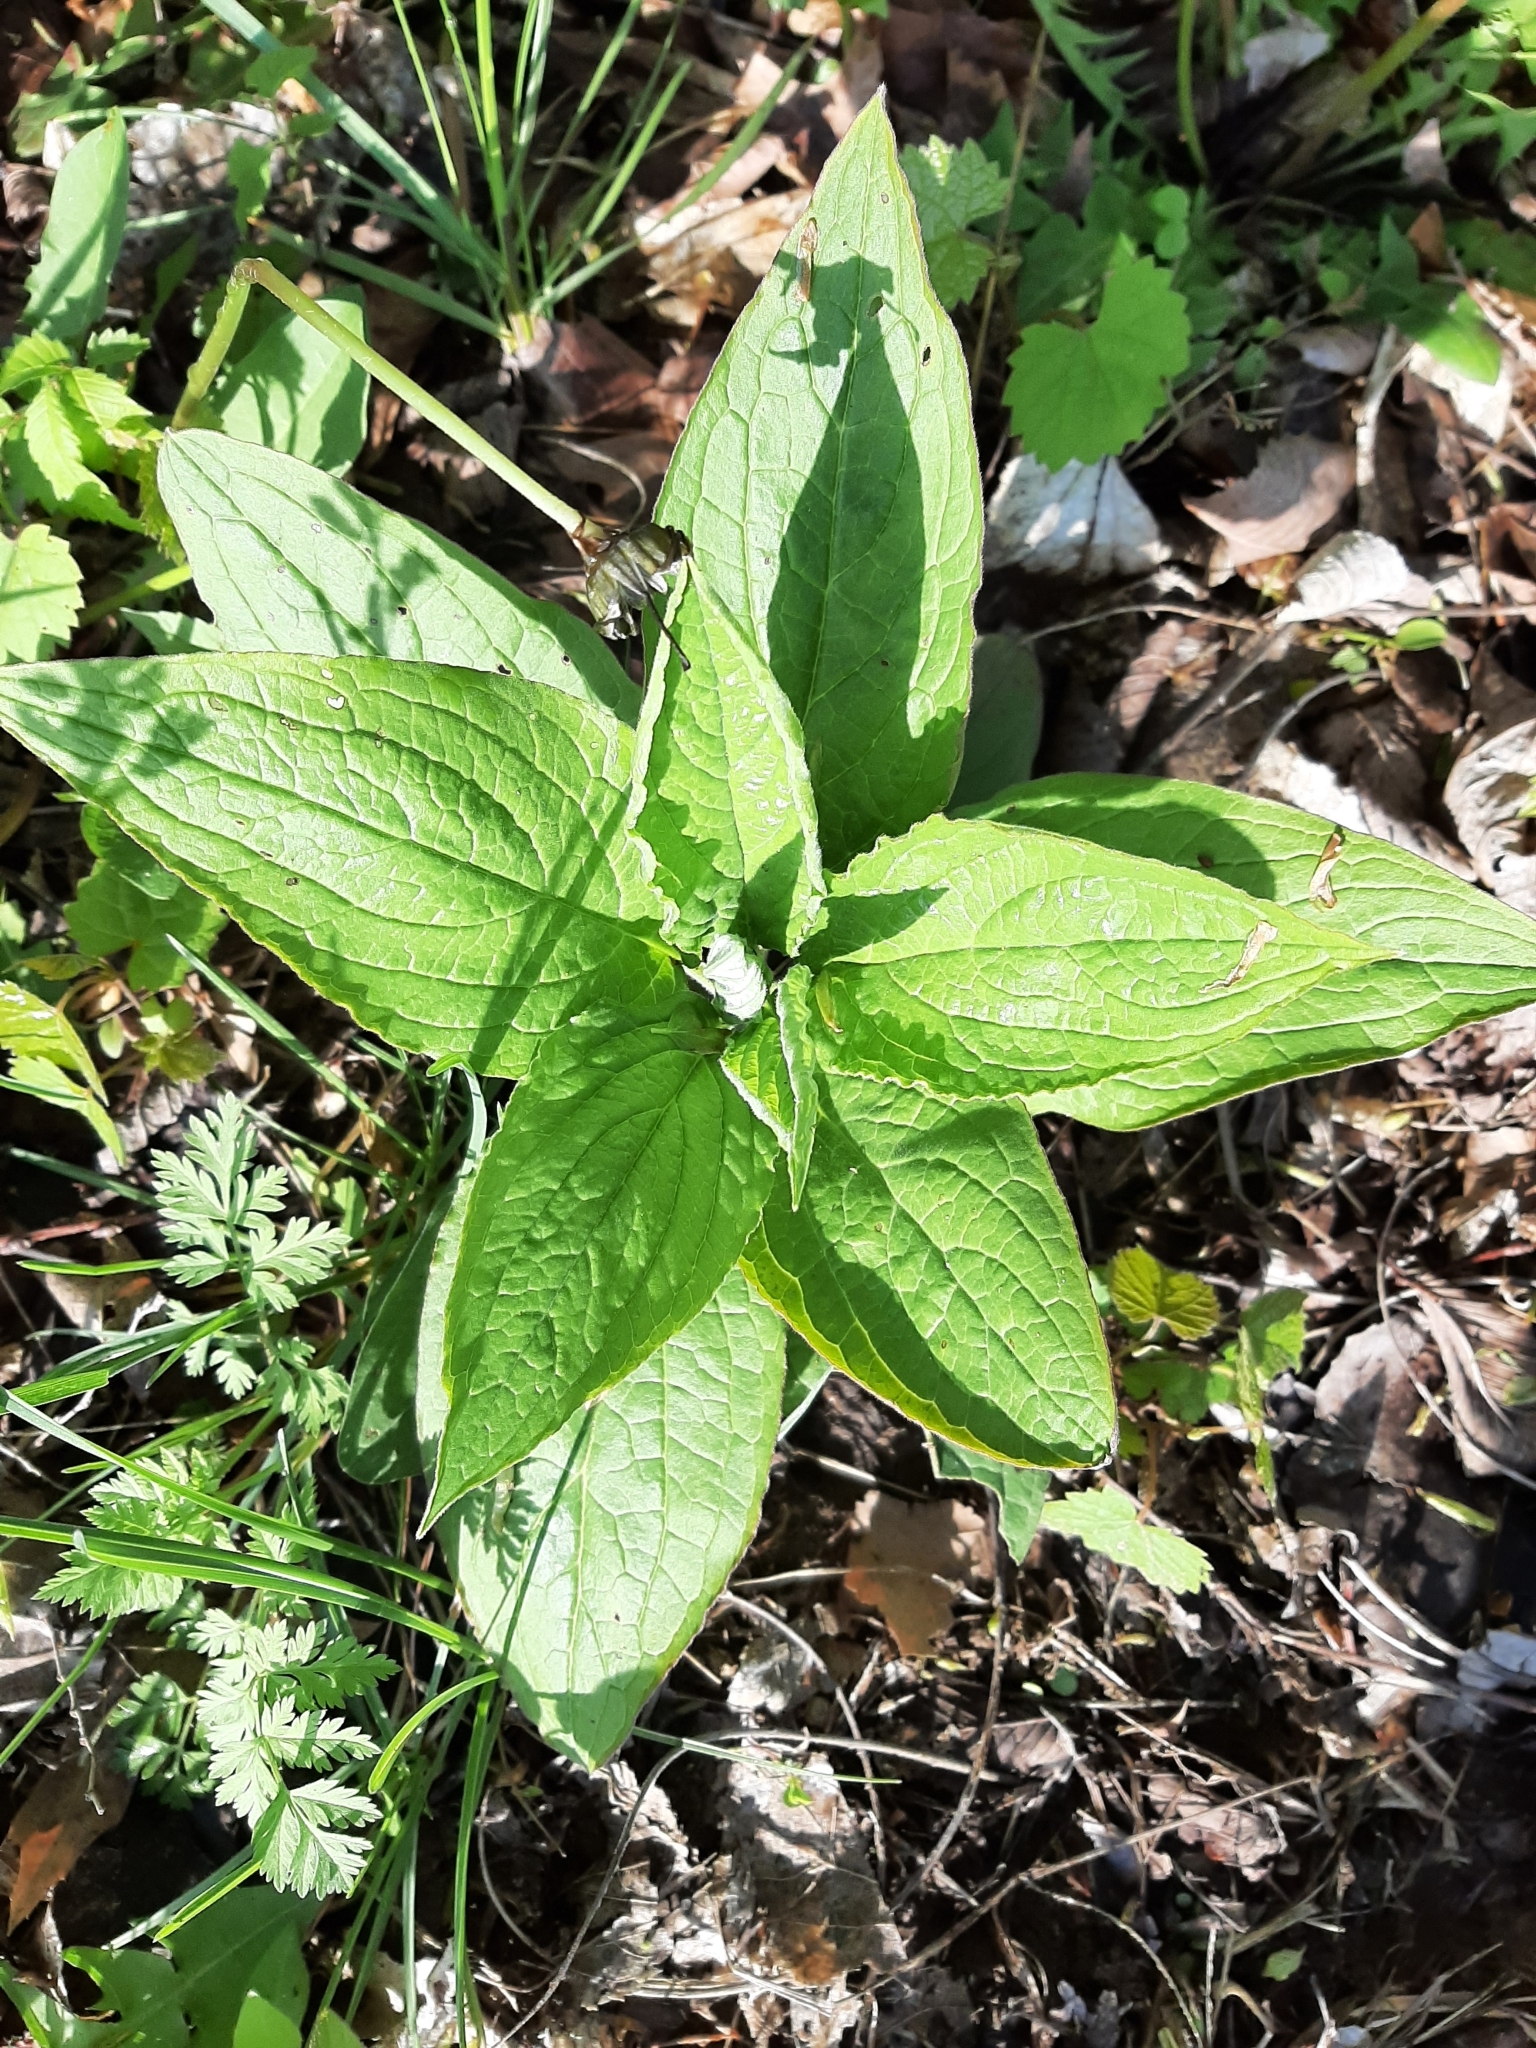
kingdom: Plantae
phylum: Tracheophyta
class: Magnoliopsida
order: Boraginales
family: Boraginaceae
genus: Hackelia
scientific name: Hackelia virginiana
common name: Beggar's-lice
